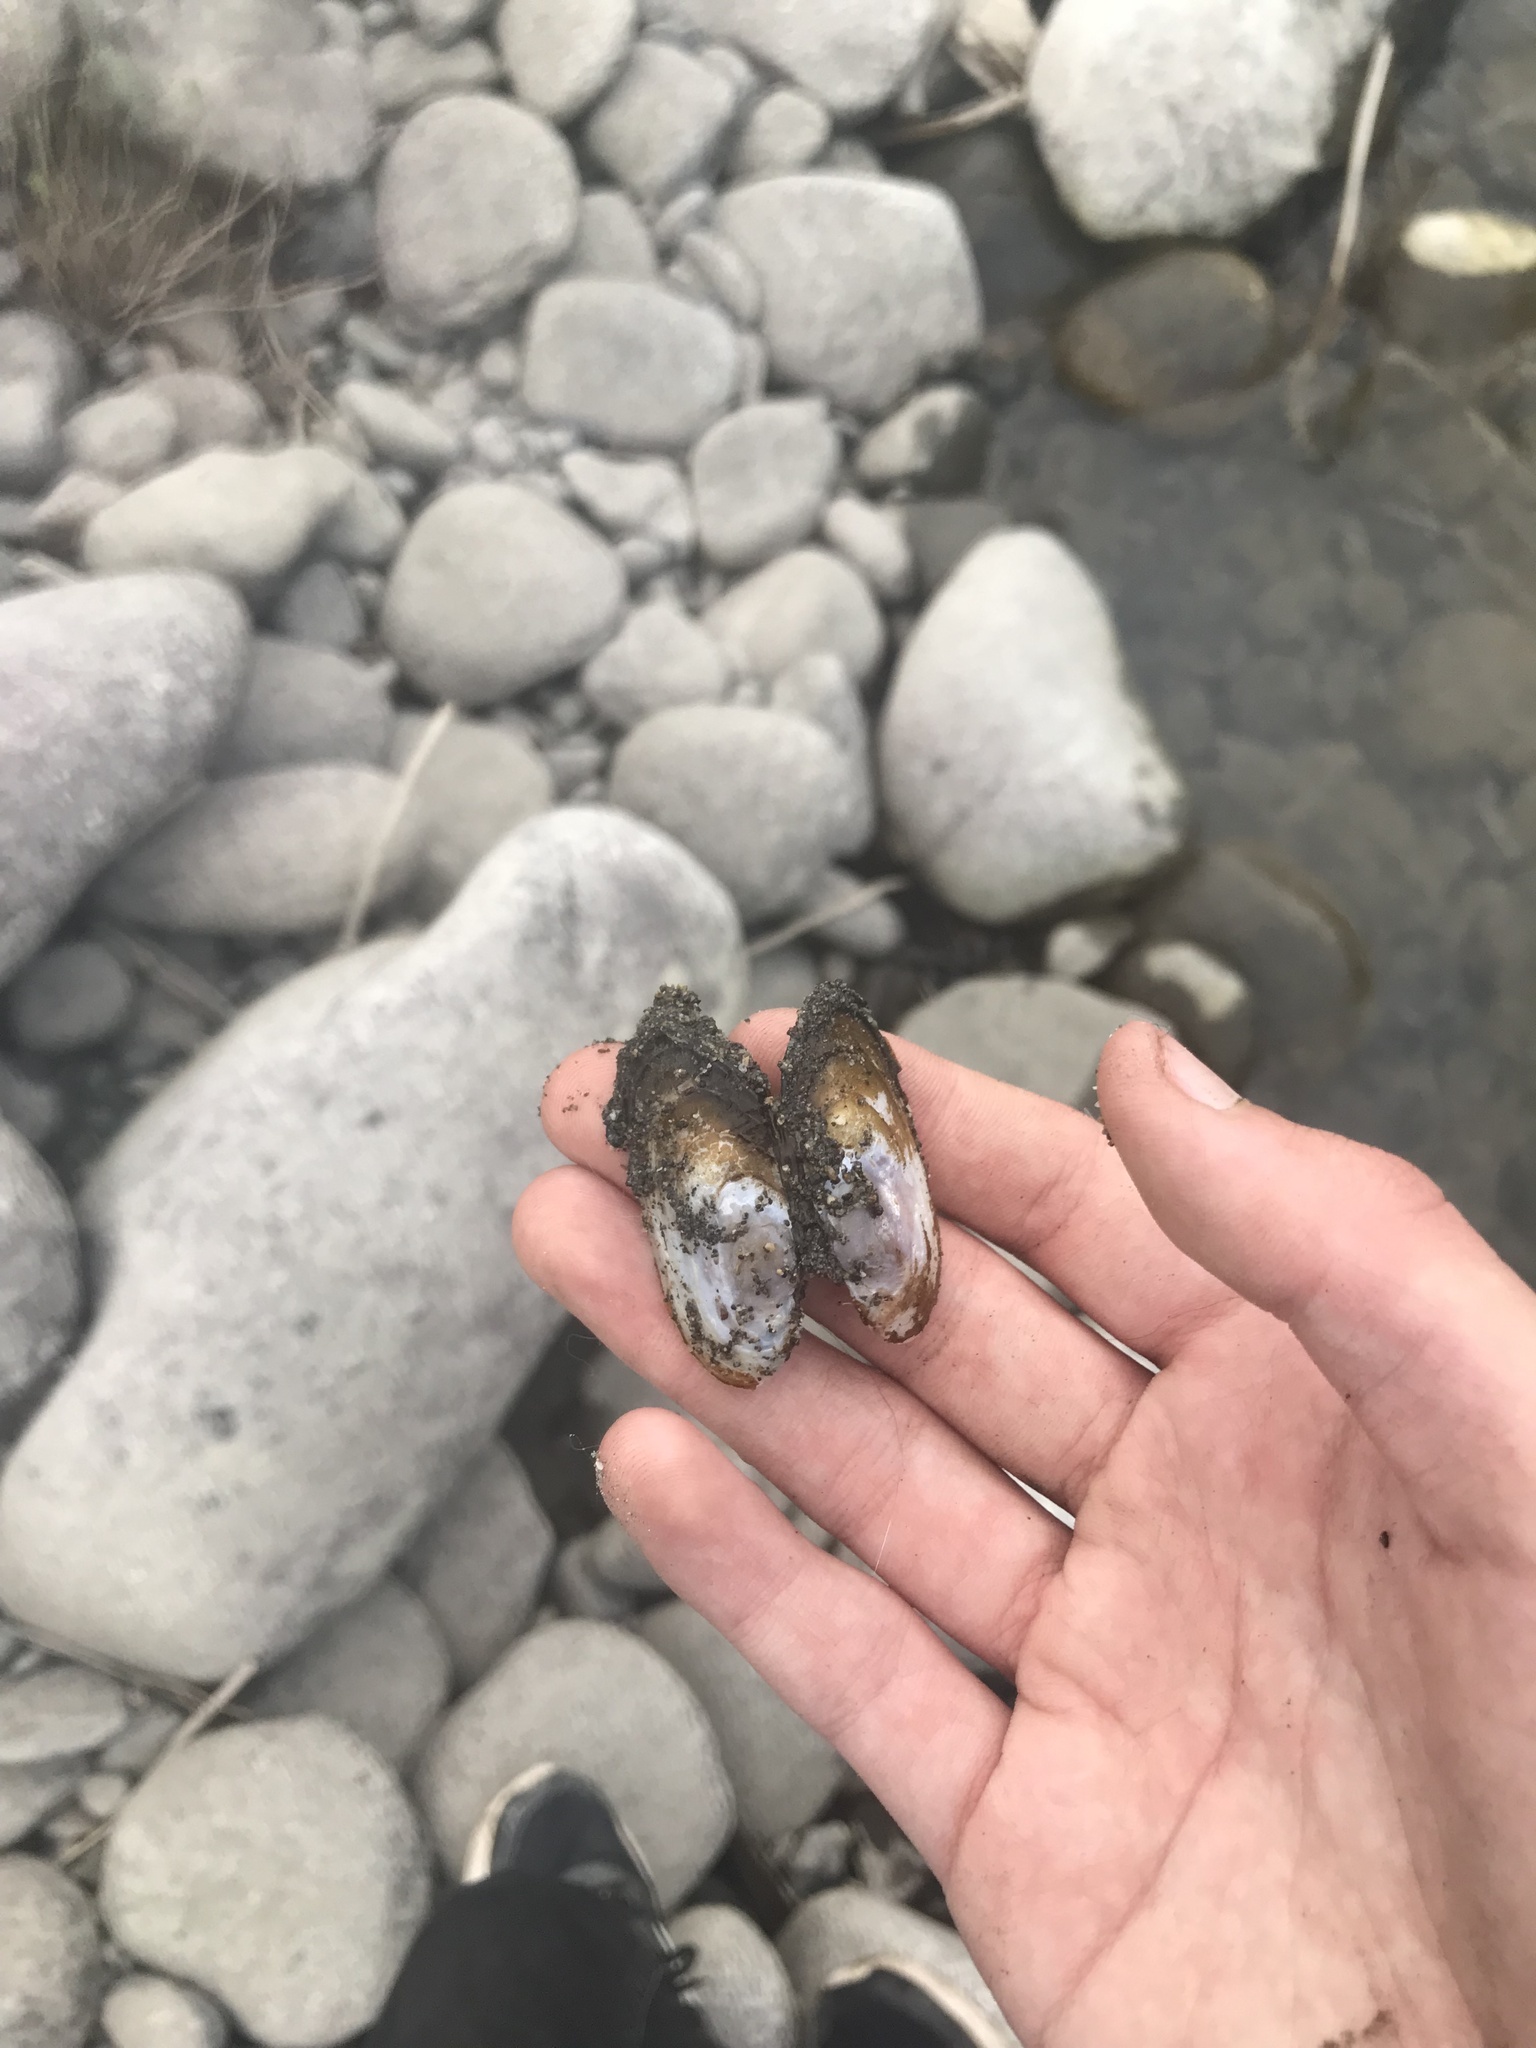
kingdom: Animalia
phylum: Mollusca
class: Bivalvia
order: Unionida
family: Margaritiferidae
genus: Margaritifera
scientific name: Margaritifera falcata
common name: Western pearlshell
